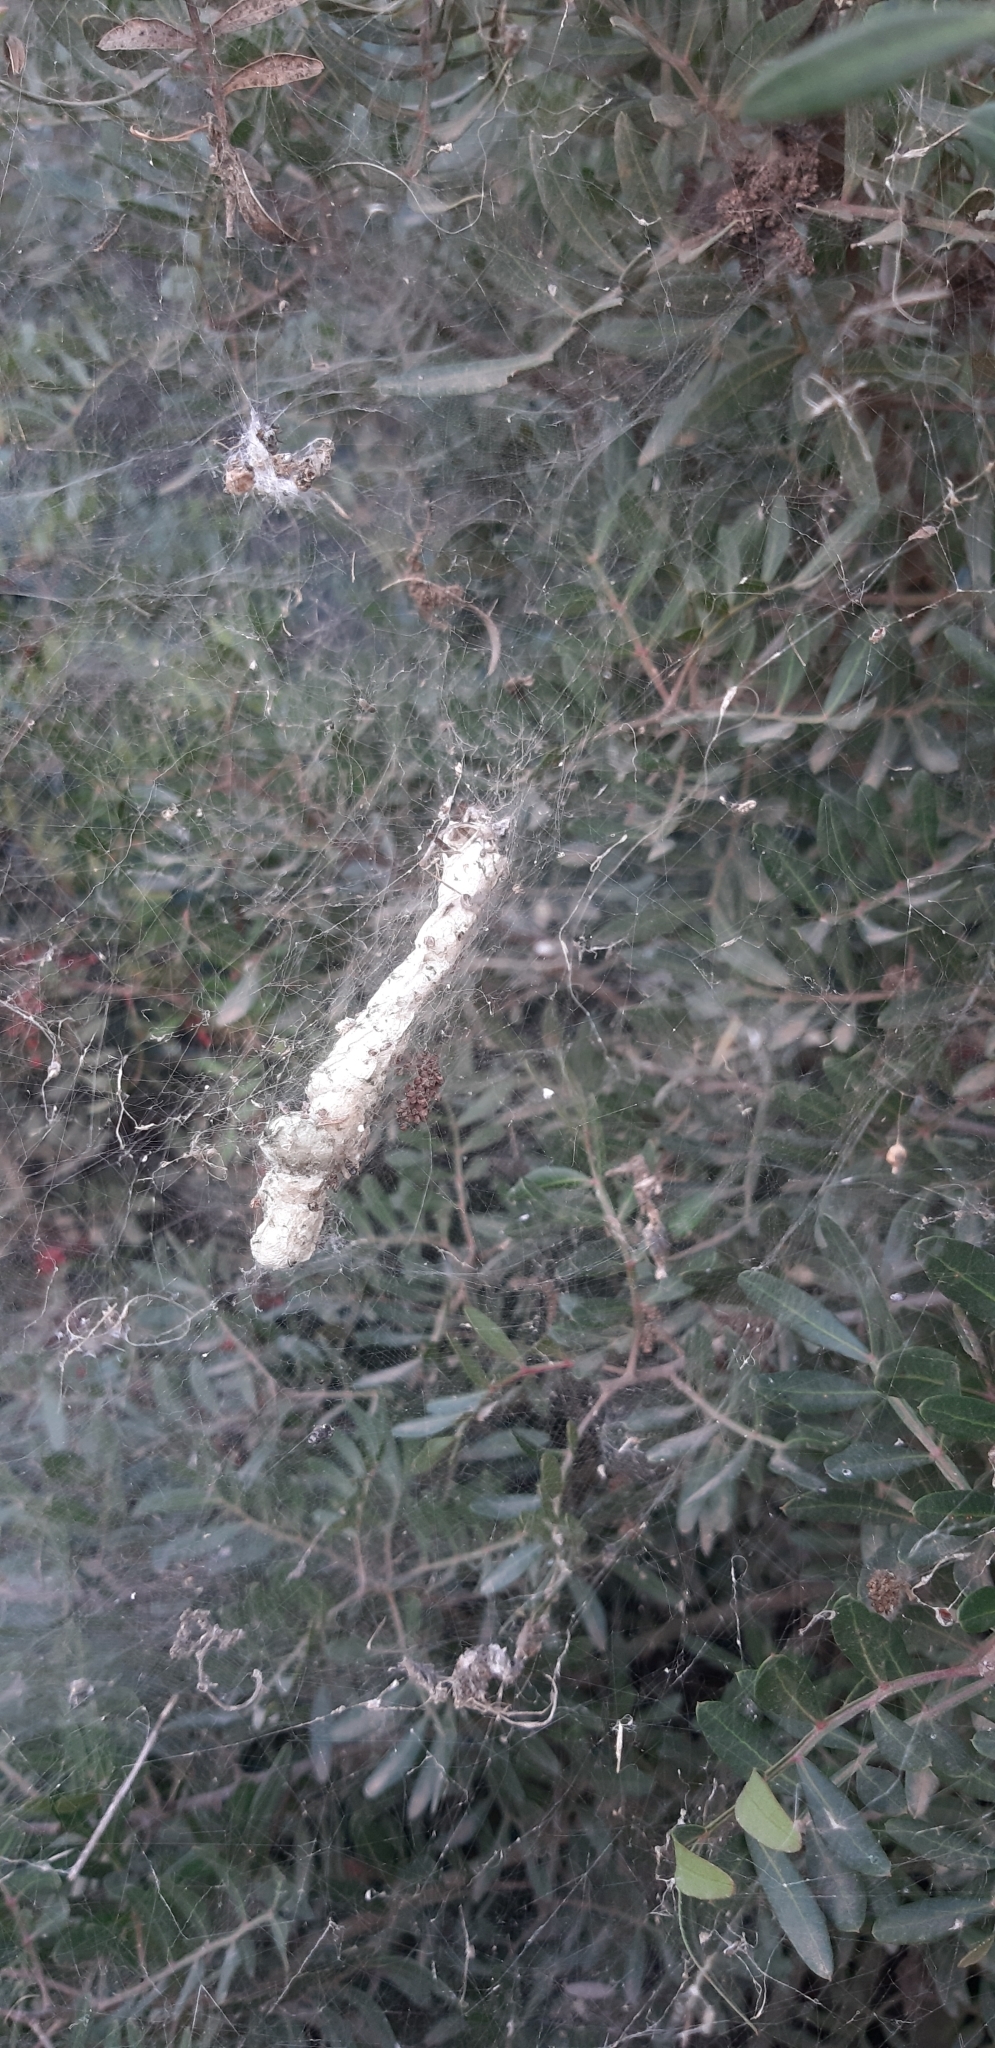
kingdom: Animalia
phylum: Arthropoda
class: Arachnida
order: Araneae
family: Araneidae
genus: Cyrtophora
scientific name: Cyrtophora citricola
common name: Orb weavers
